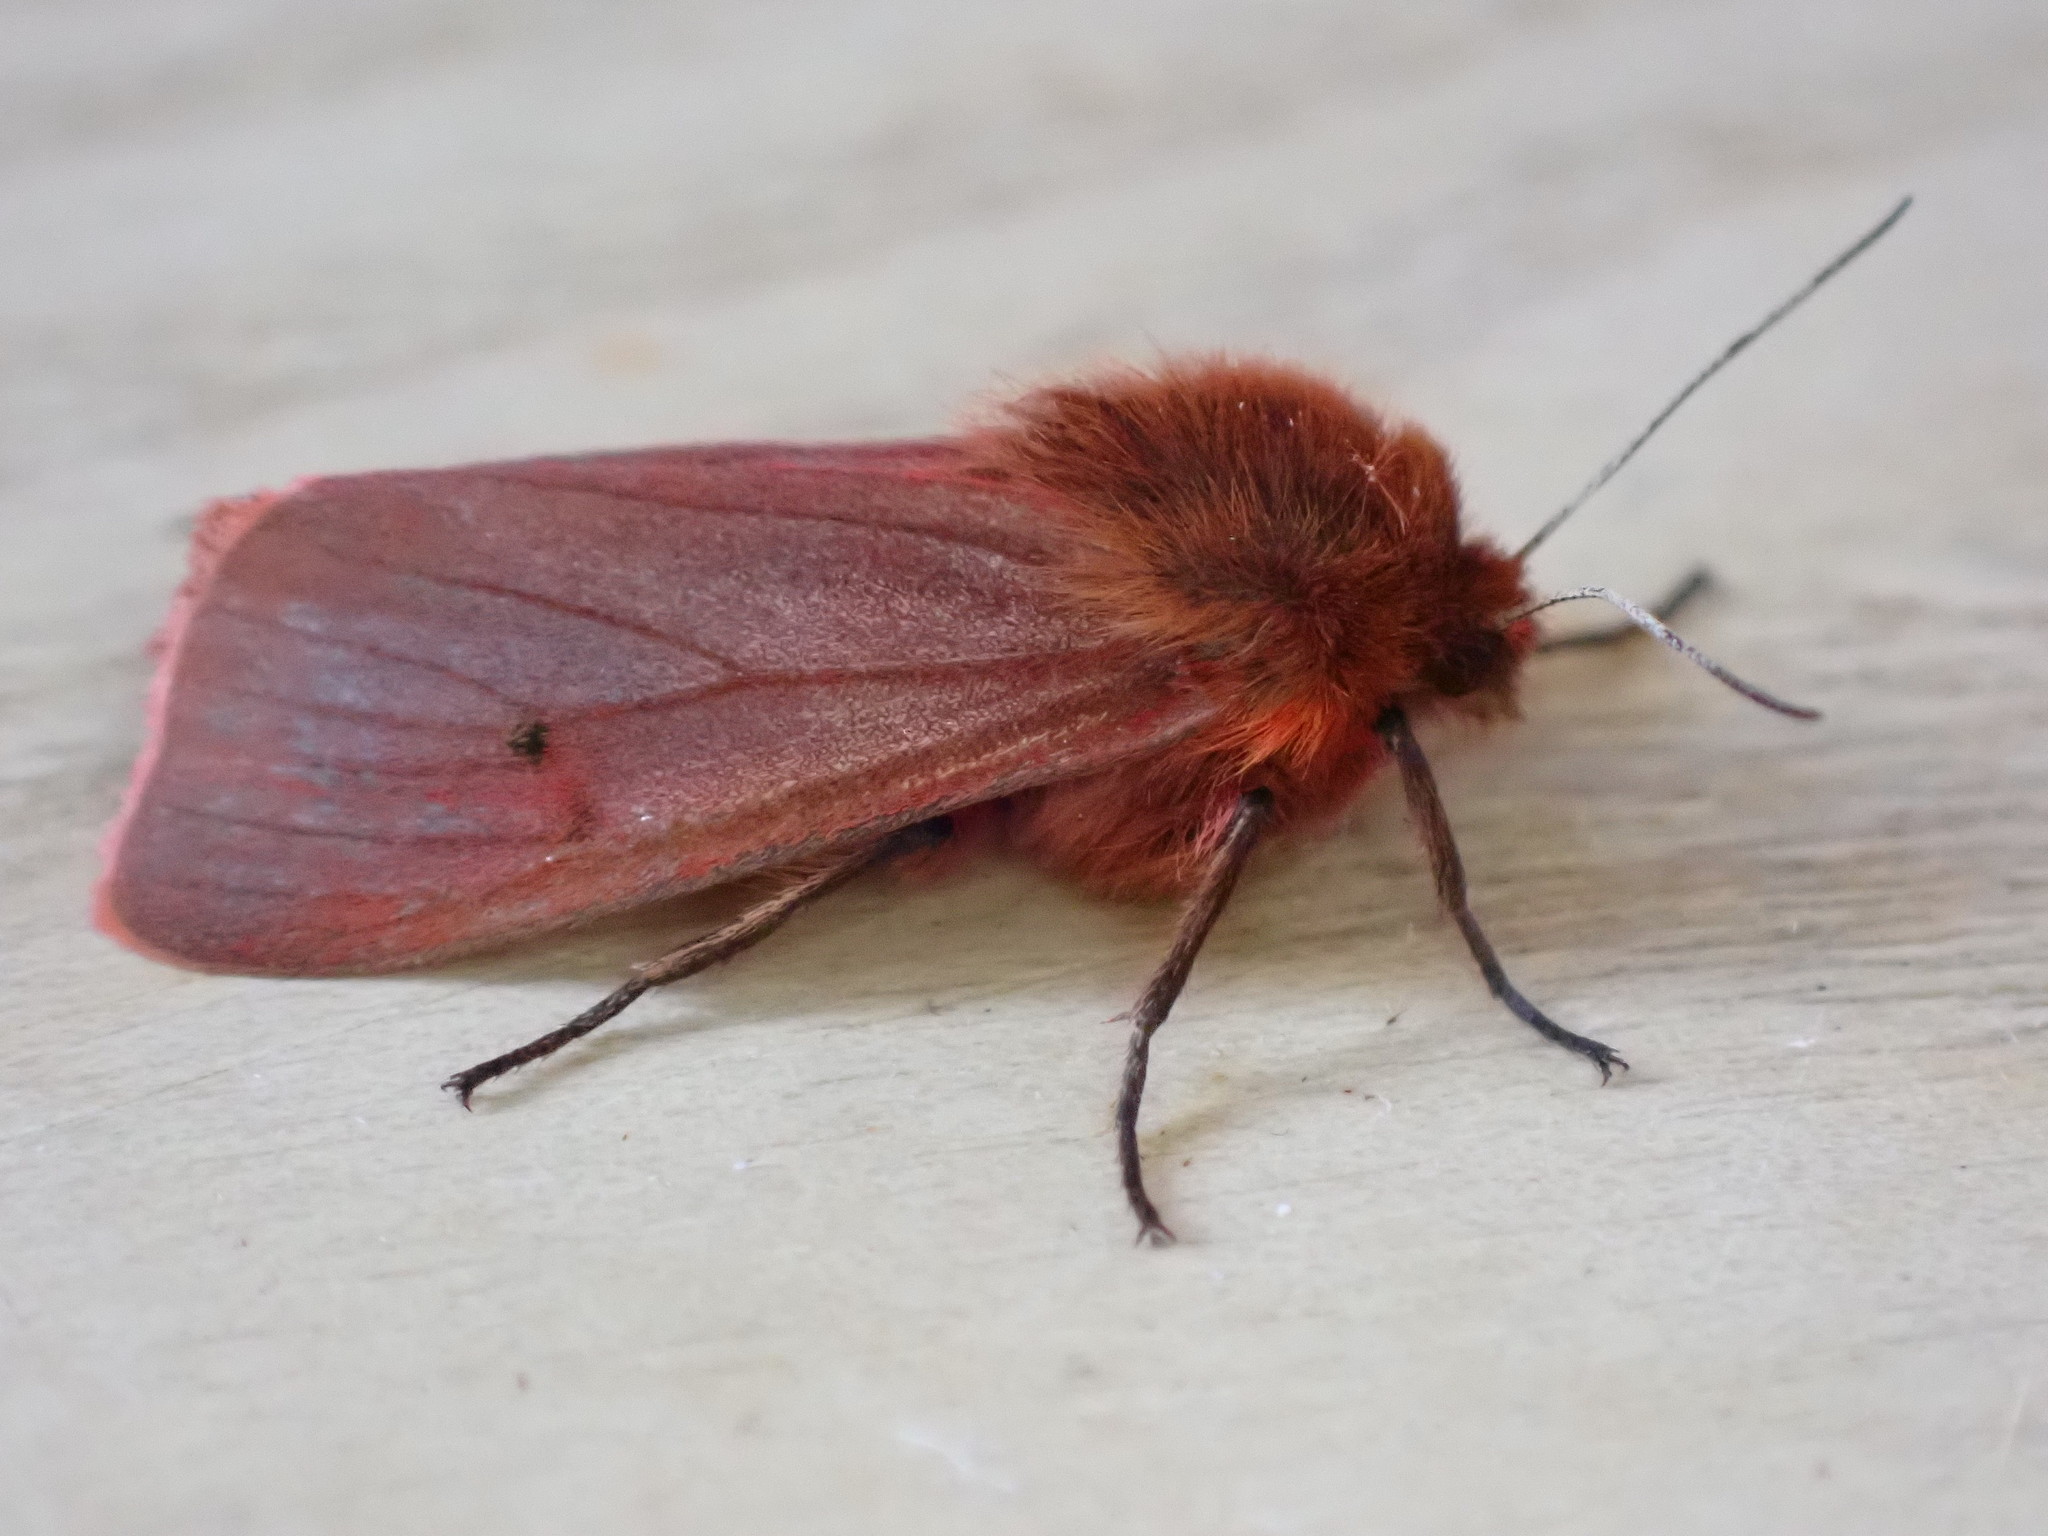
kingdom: Animalia
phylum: Arthropoda
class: Insecta
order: Lepidoptera
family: Erebidae
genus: Phragmatobia
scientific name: Phragmatobia fuliginosa
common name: Ruby tiger
